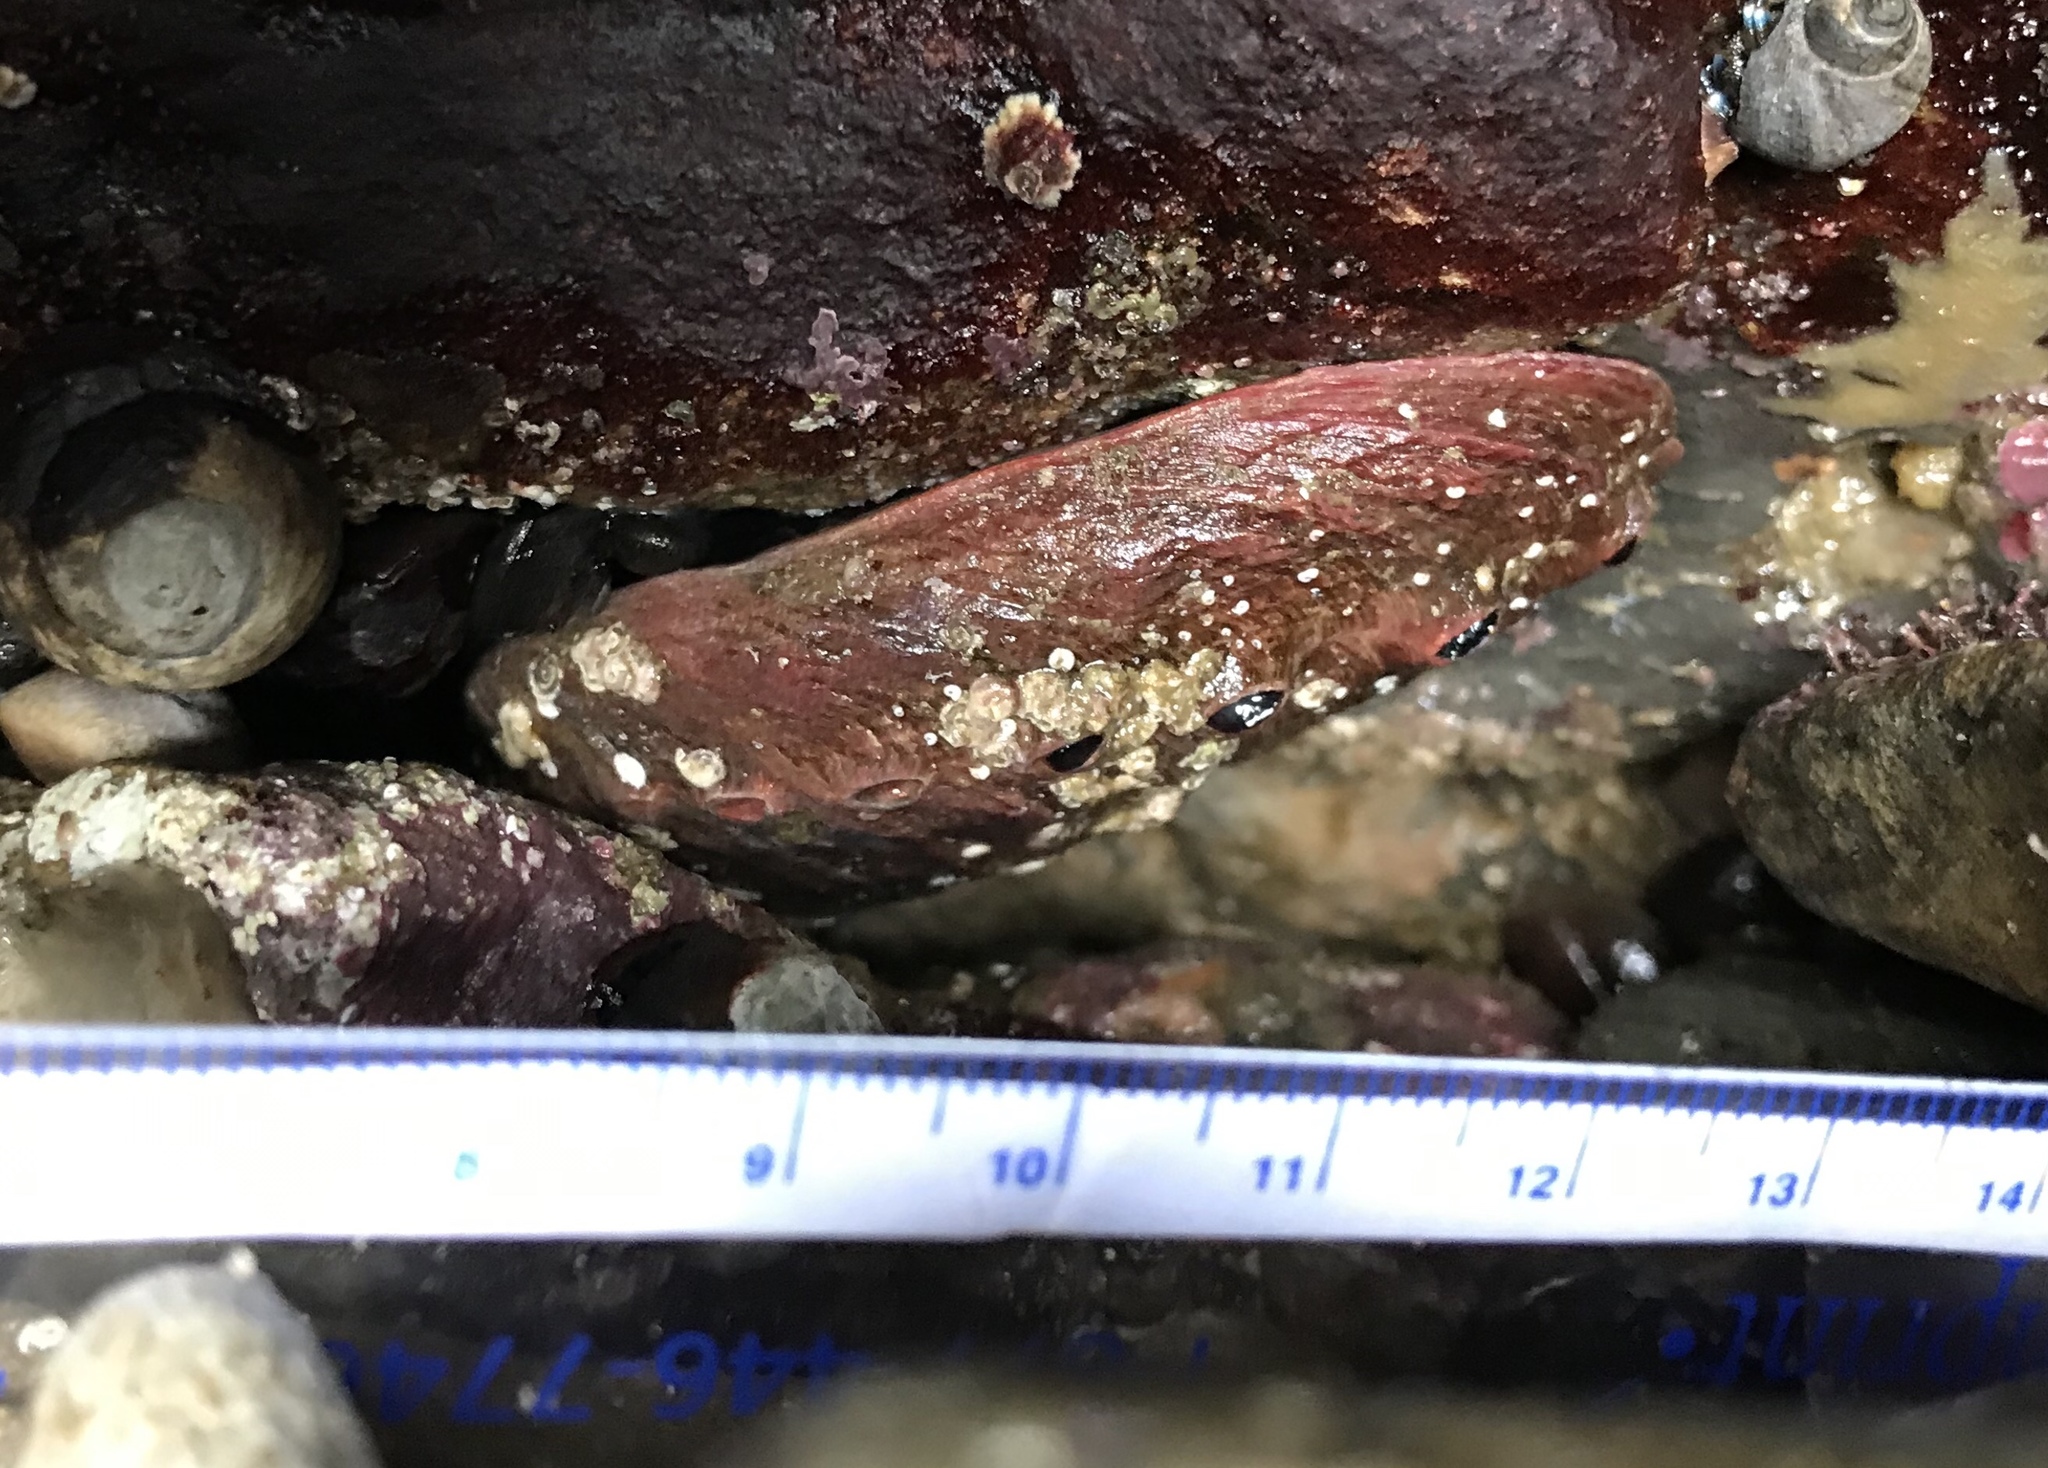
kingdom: Animalia
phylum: Mollusca
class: Gastropoda
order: Lepetellida
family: Haliotidae
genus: Haliotis
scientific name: Haliotis rufescens
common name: Red abalone
